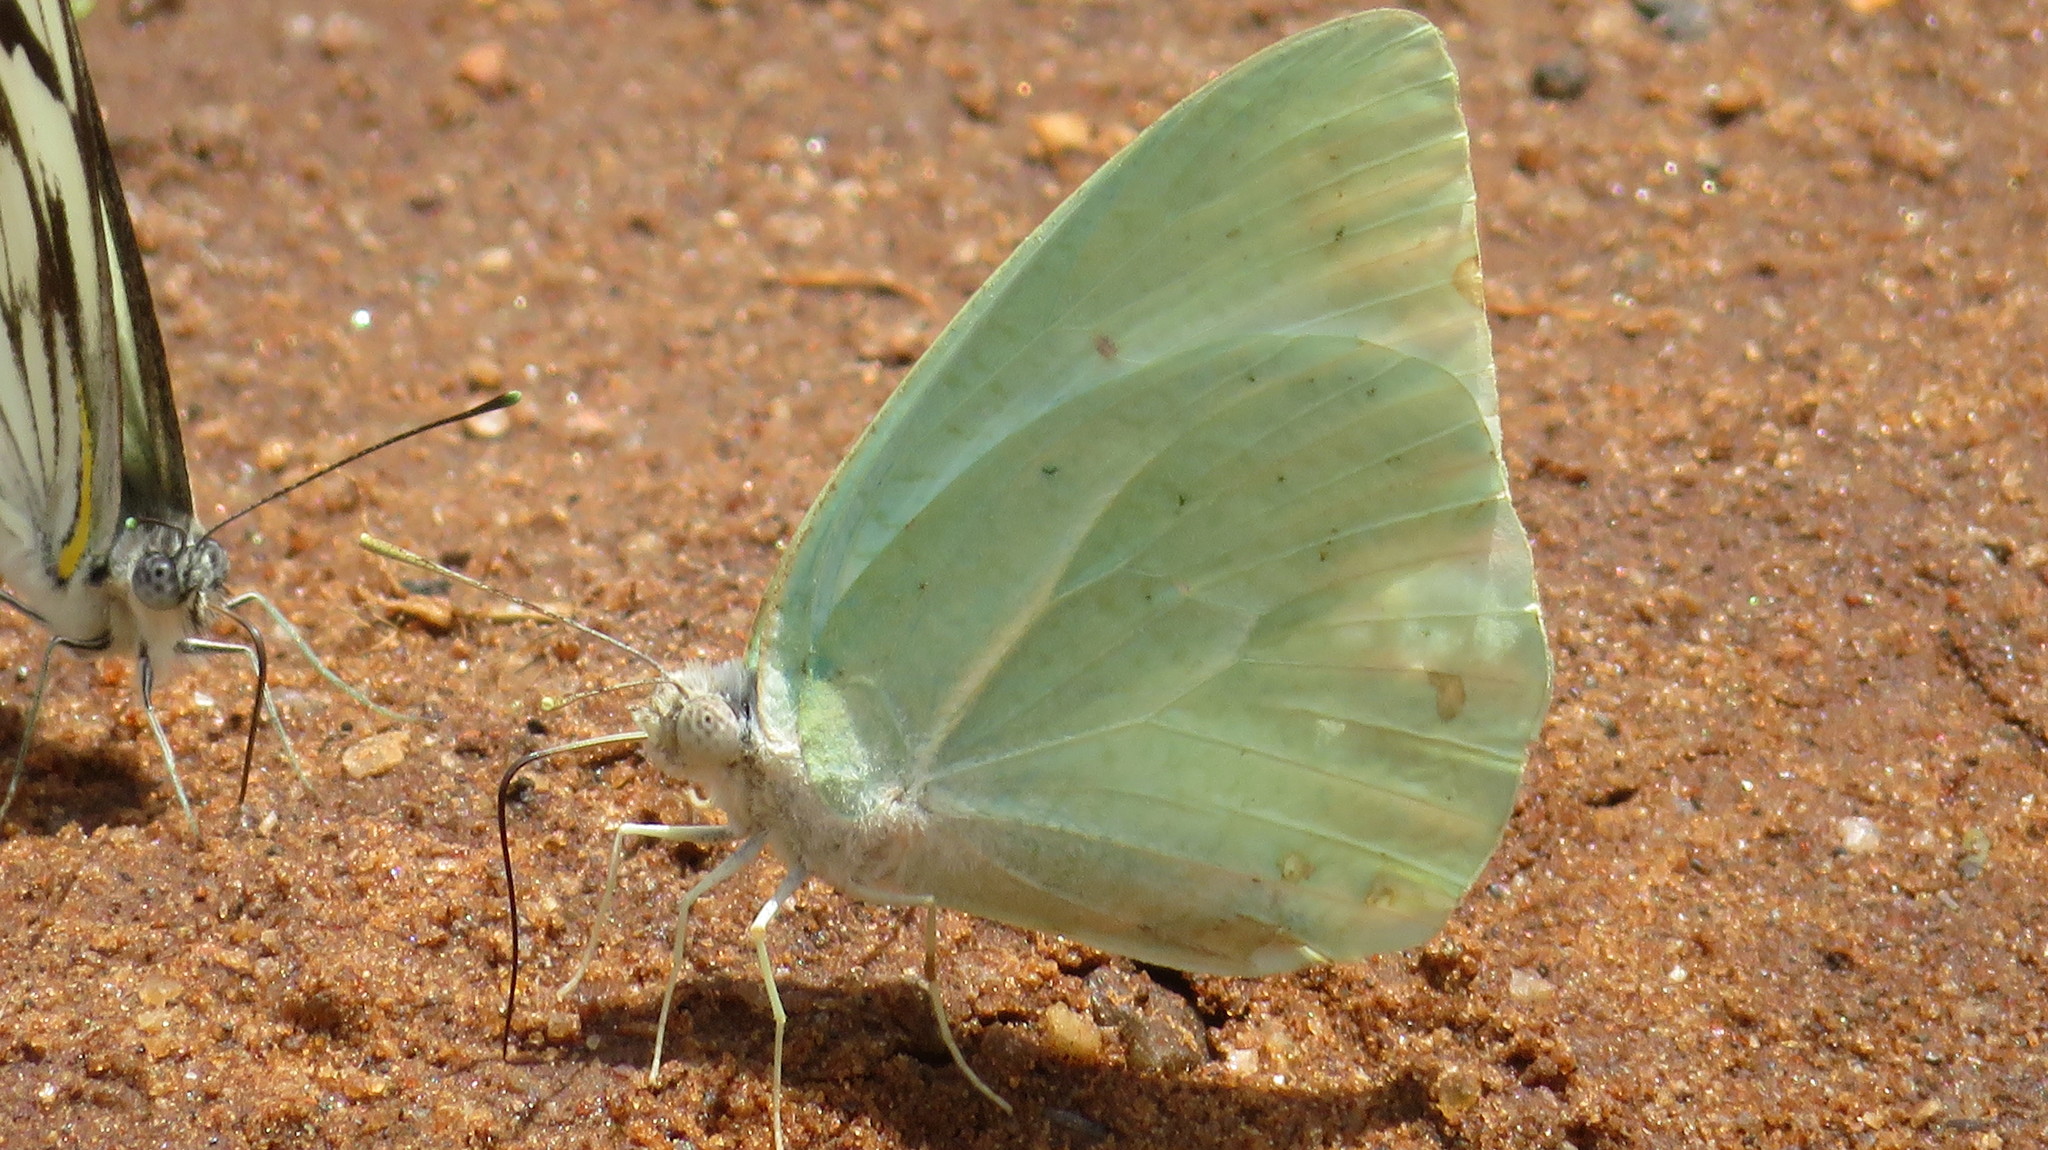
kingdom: Animalia
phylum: Arthropoda
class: Insecta
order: Lepidoptera
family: Pieridae
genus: Catopsilia
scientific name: Catopsilia florella
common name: African migrant
